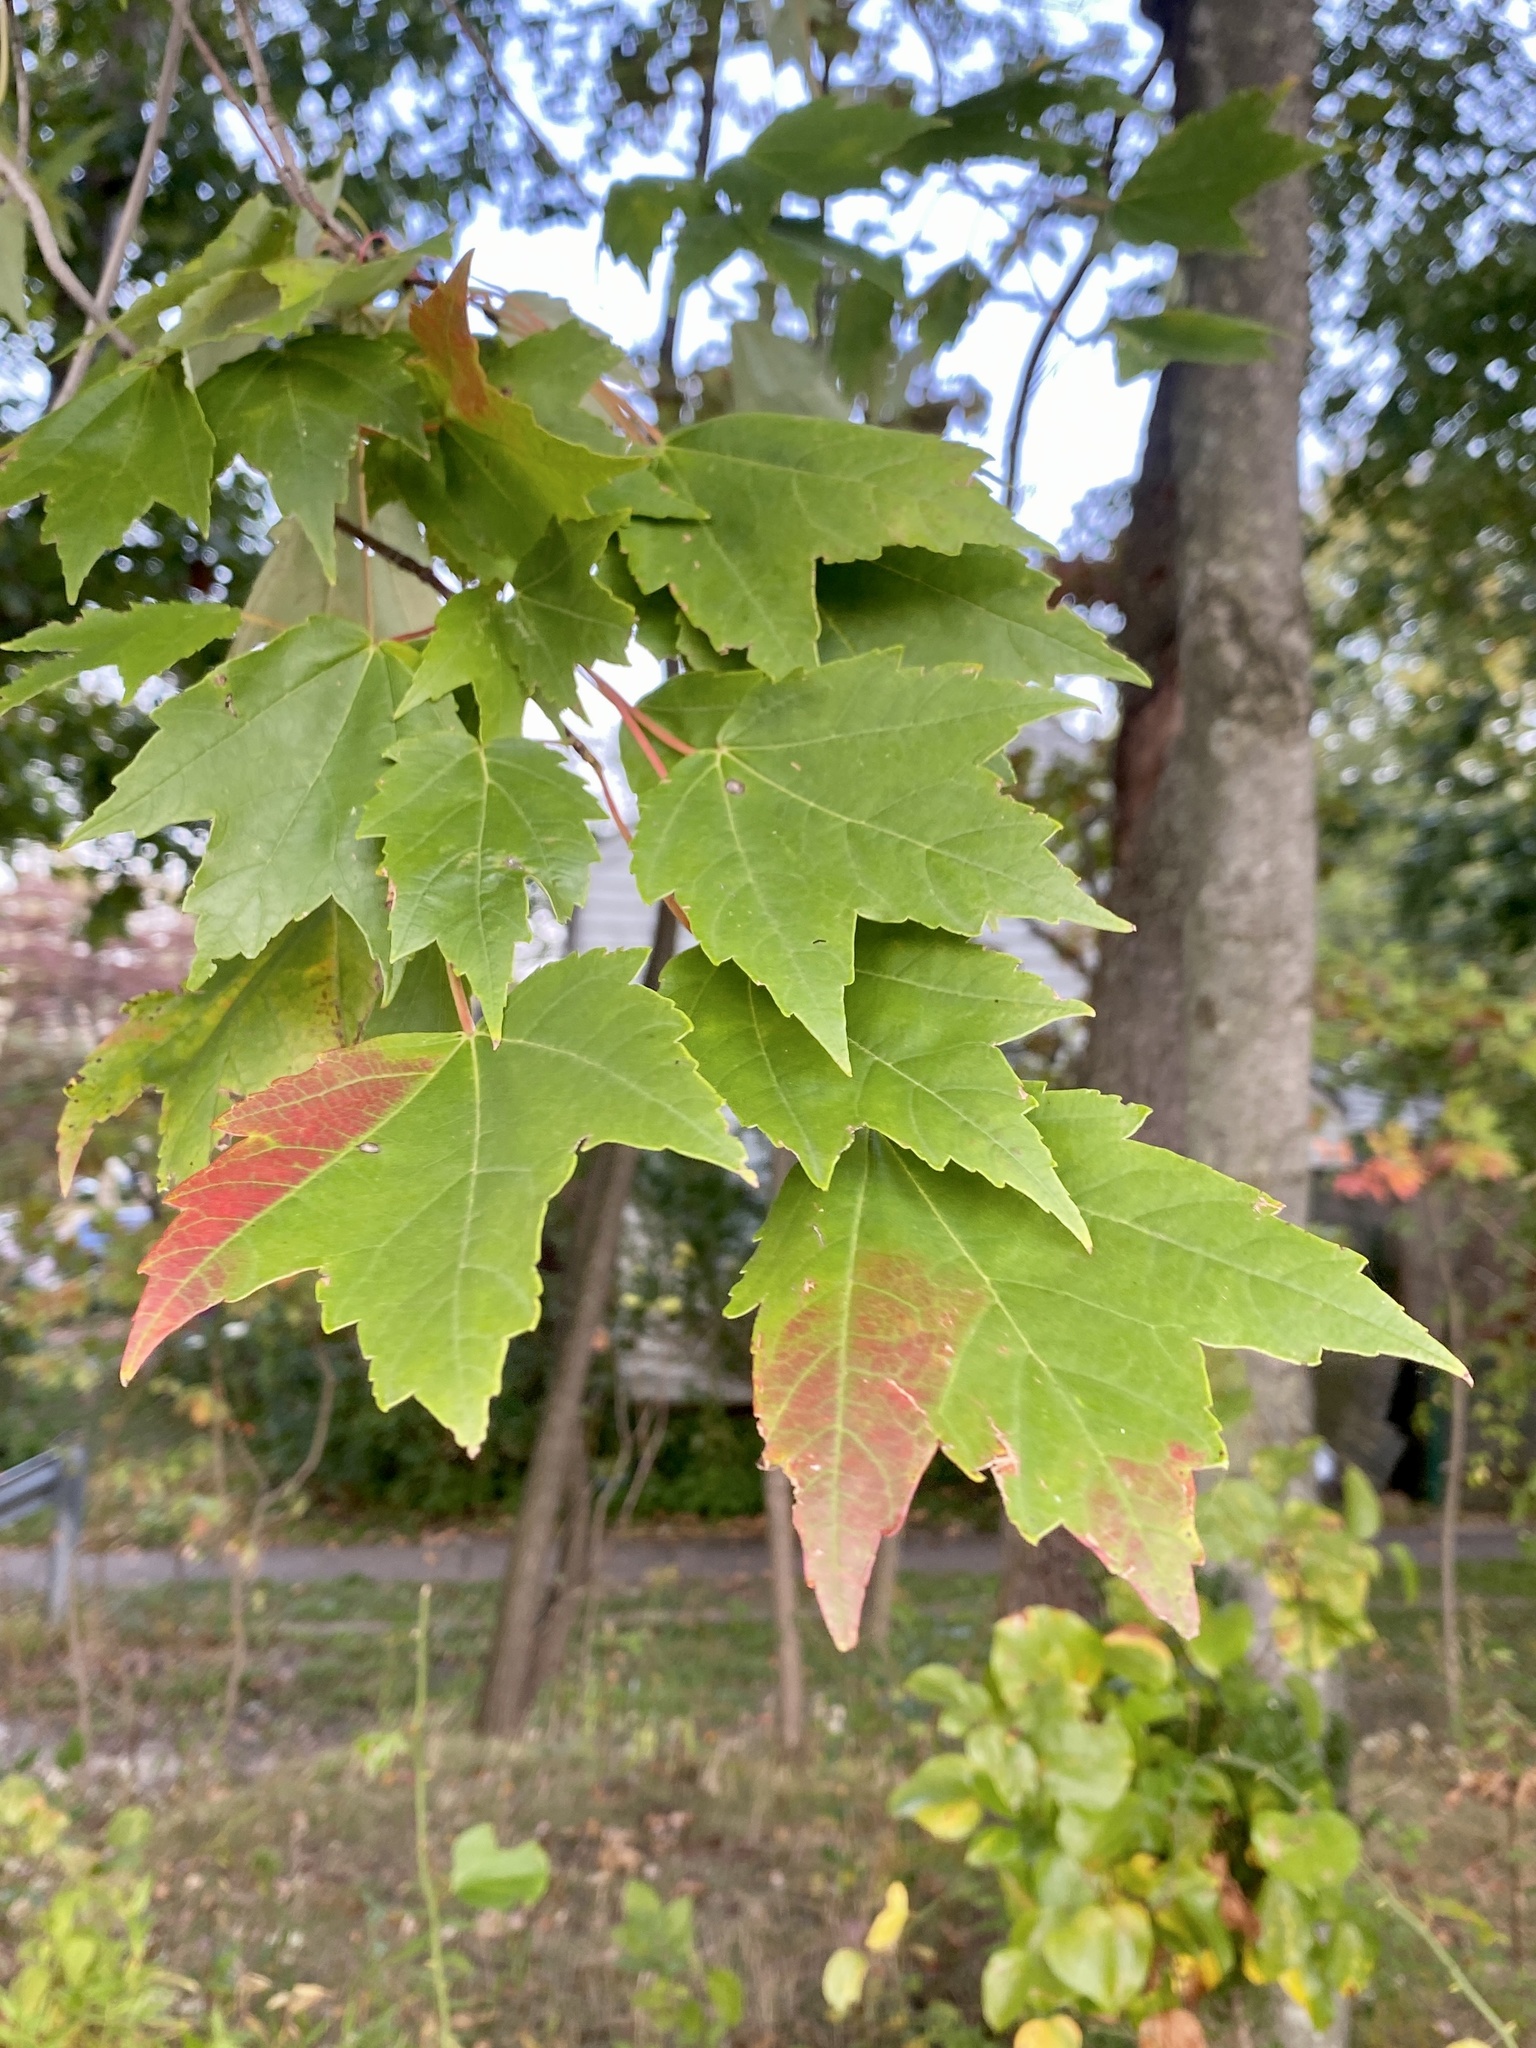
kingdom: Plantae
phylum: Tracheophyta
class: Magnoliopsida
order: Sapindales
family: Sapindaceae
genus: Acer
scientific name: Acer rubrum
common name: Red maple
